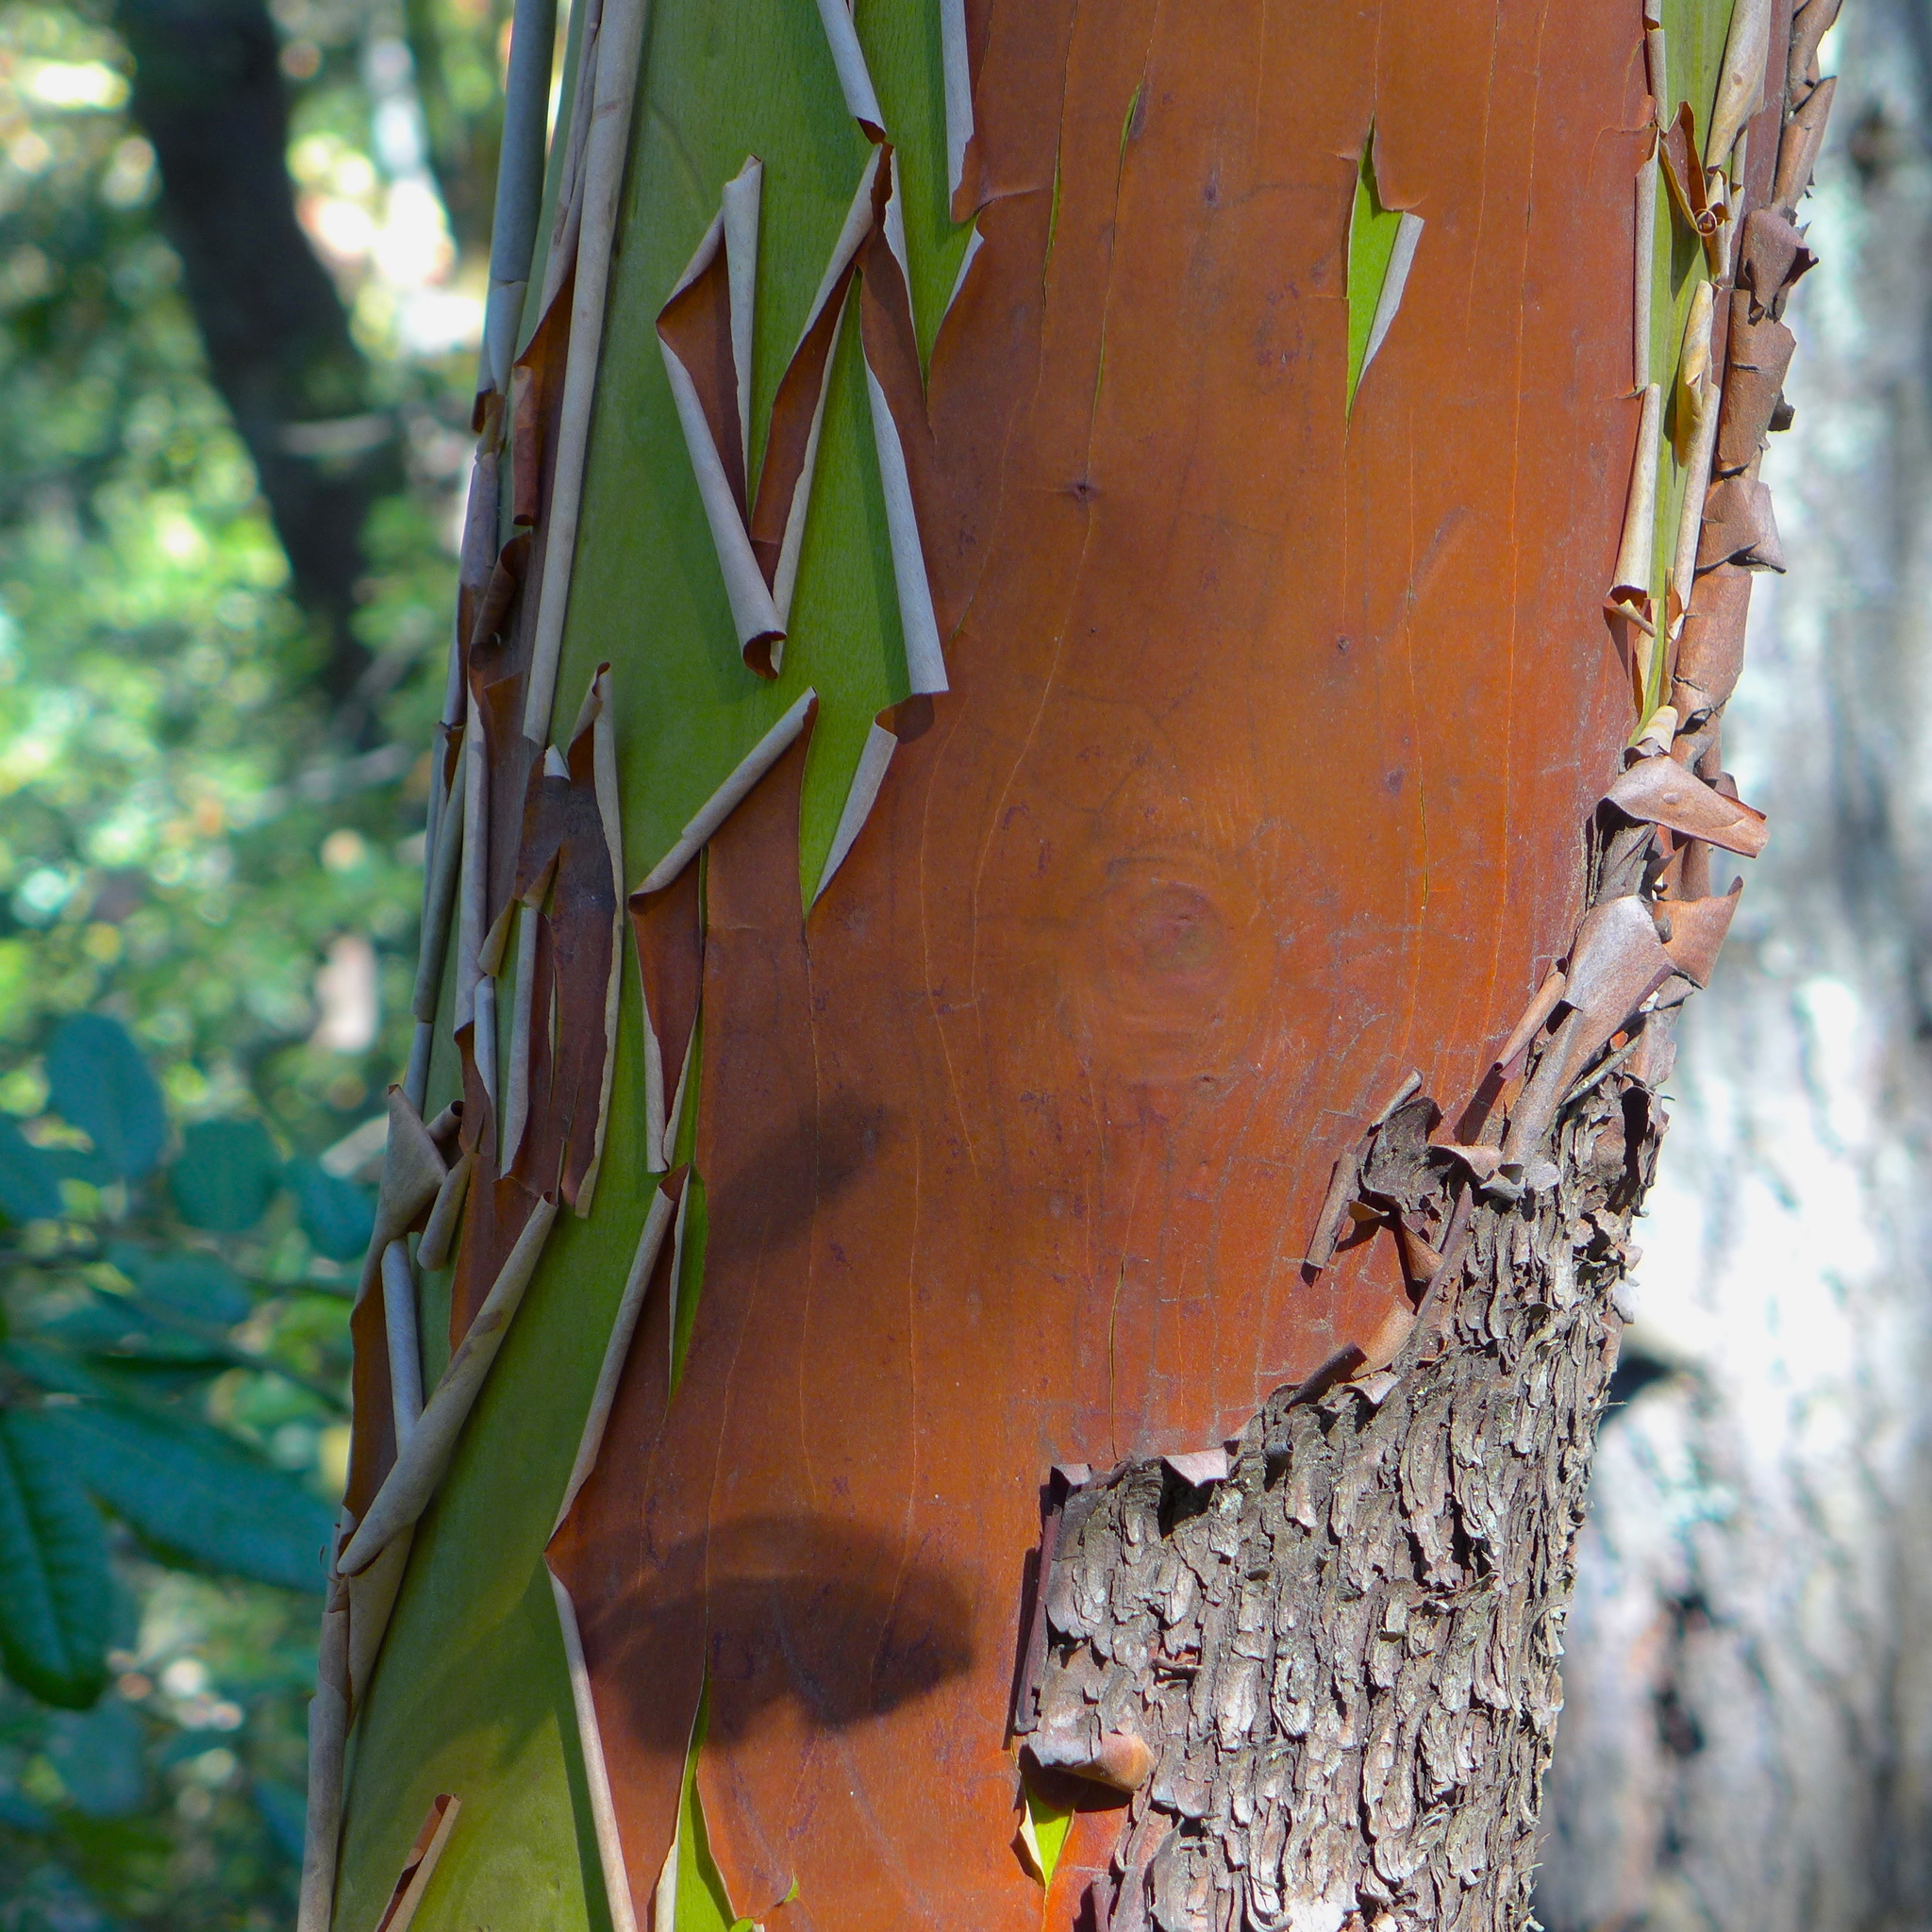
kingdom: Plantae
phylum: Tracheophyta
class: Magnoliopsida
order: Ericales
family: Ericaceae
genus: Arbutus
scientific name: Arbutus menziesii
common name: Pacific madrone
